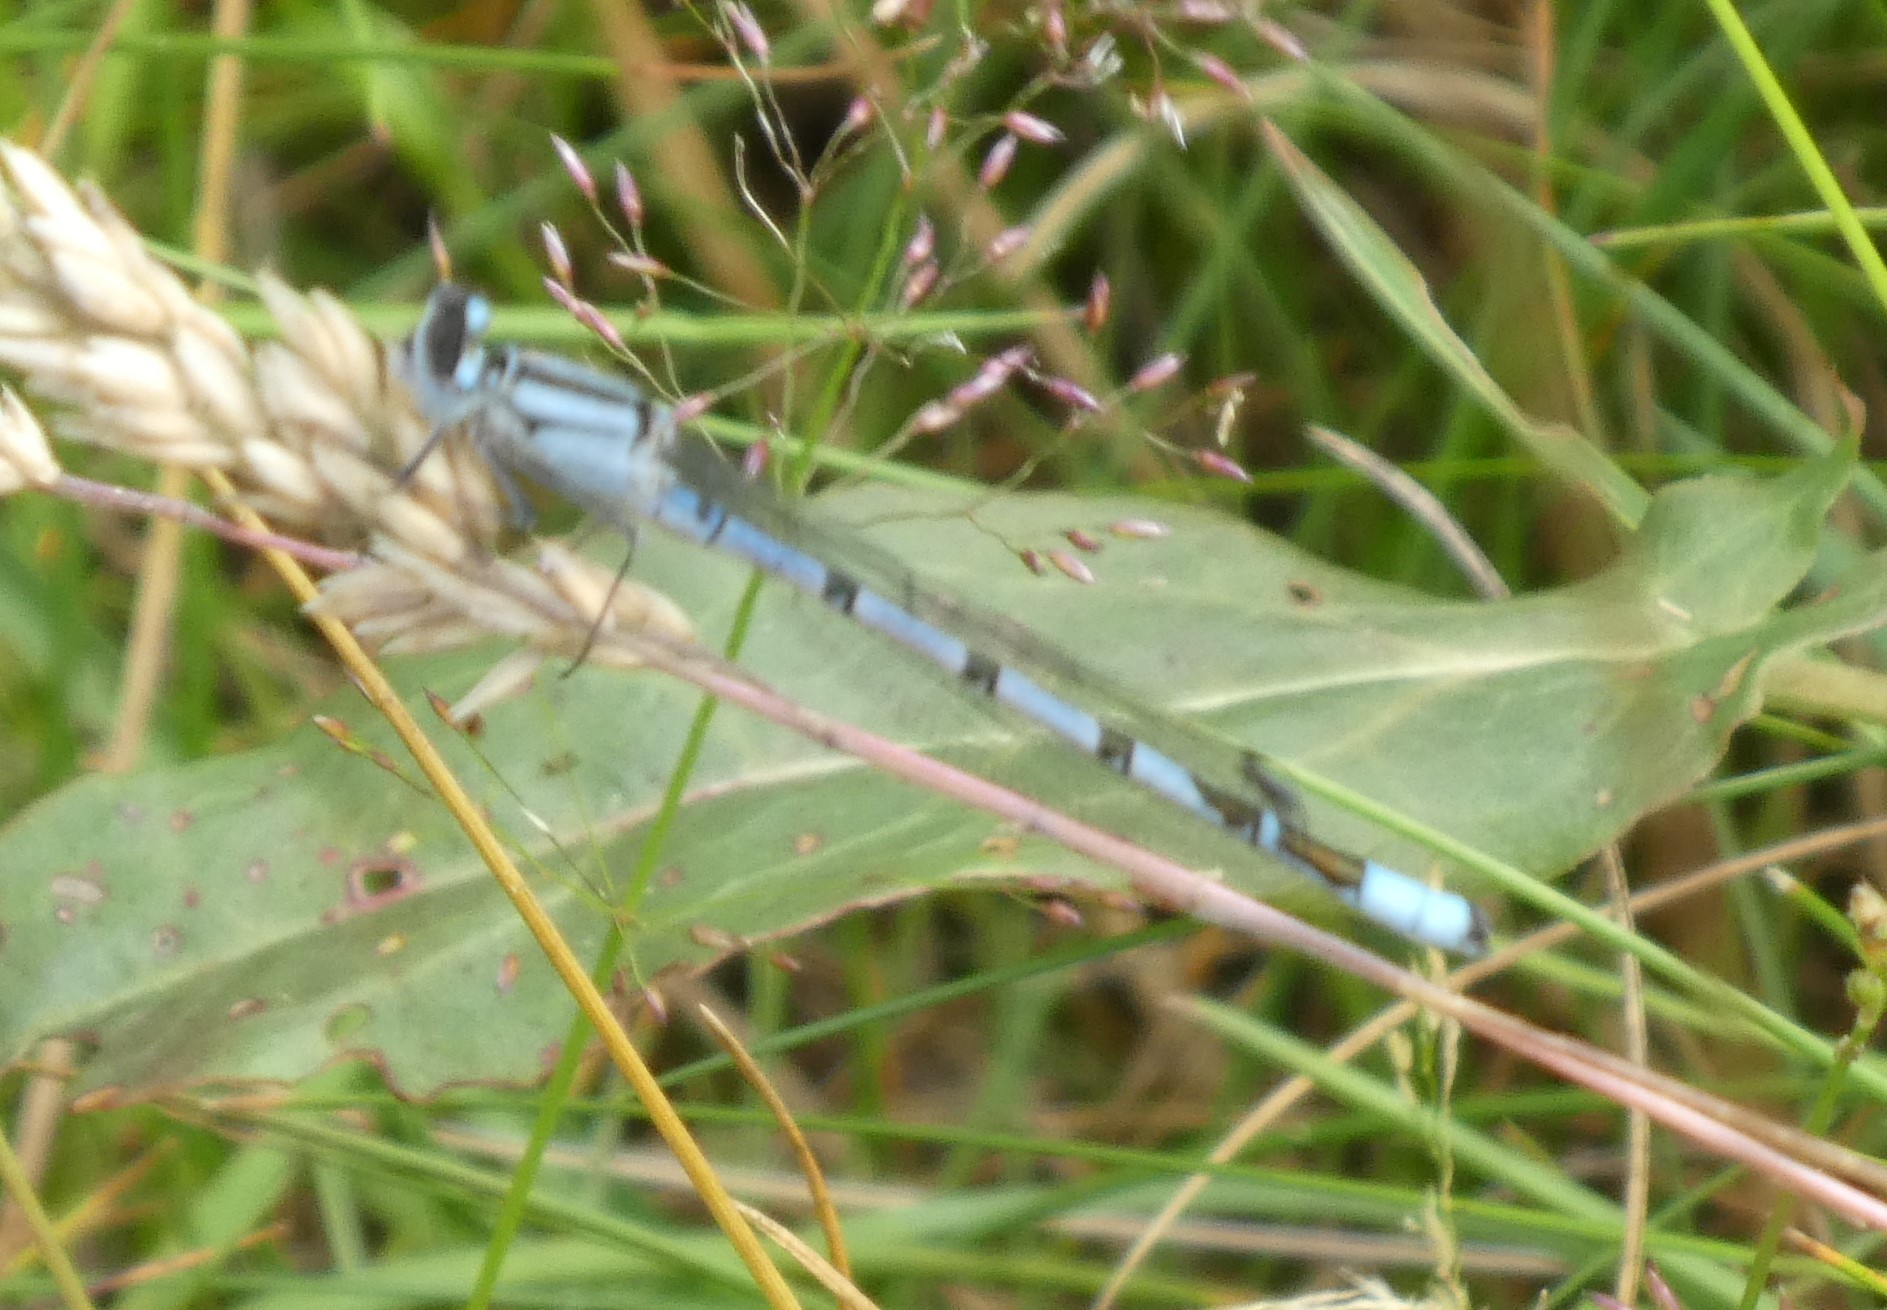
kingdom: Animalia
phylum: Arthropoda
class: Insecta
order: Odonata
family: Coenagrionidae
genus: Enallagma
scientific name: Enallagma cyathigerum
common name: Common blue damselfly
